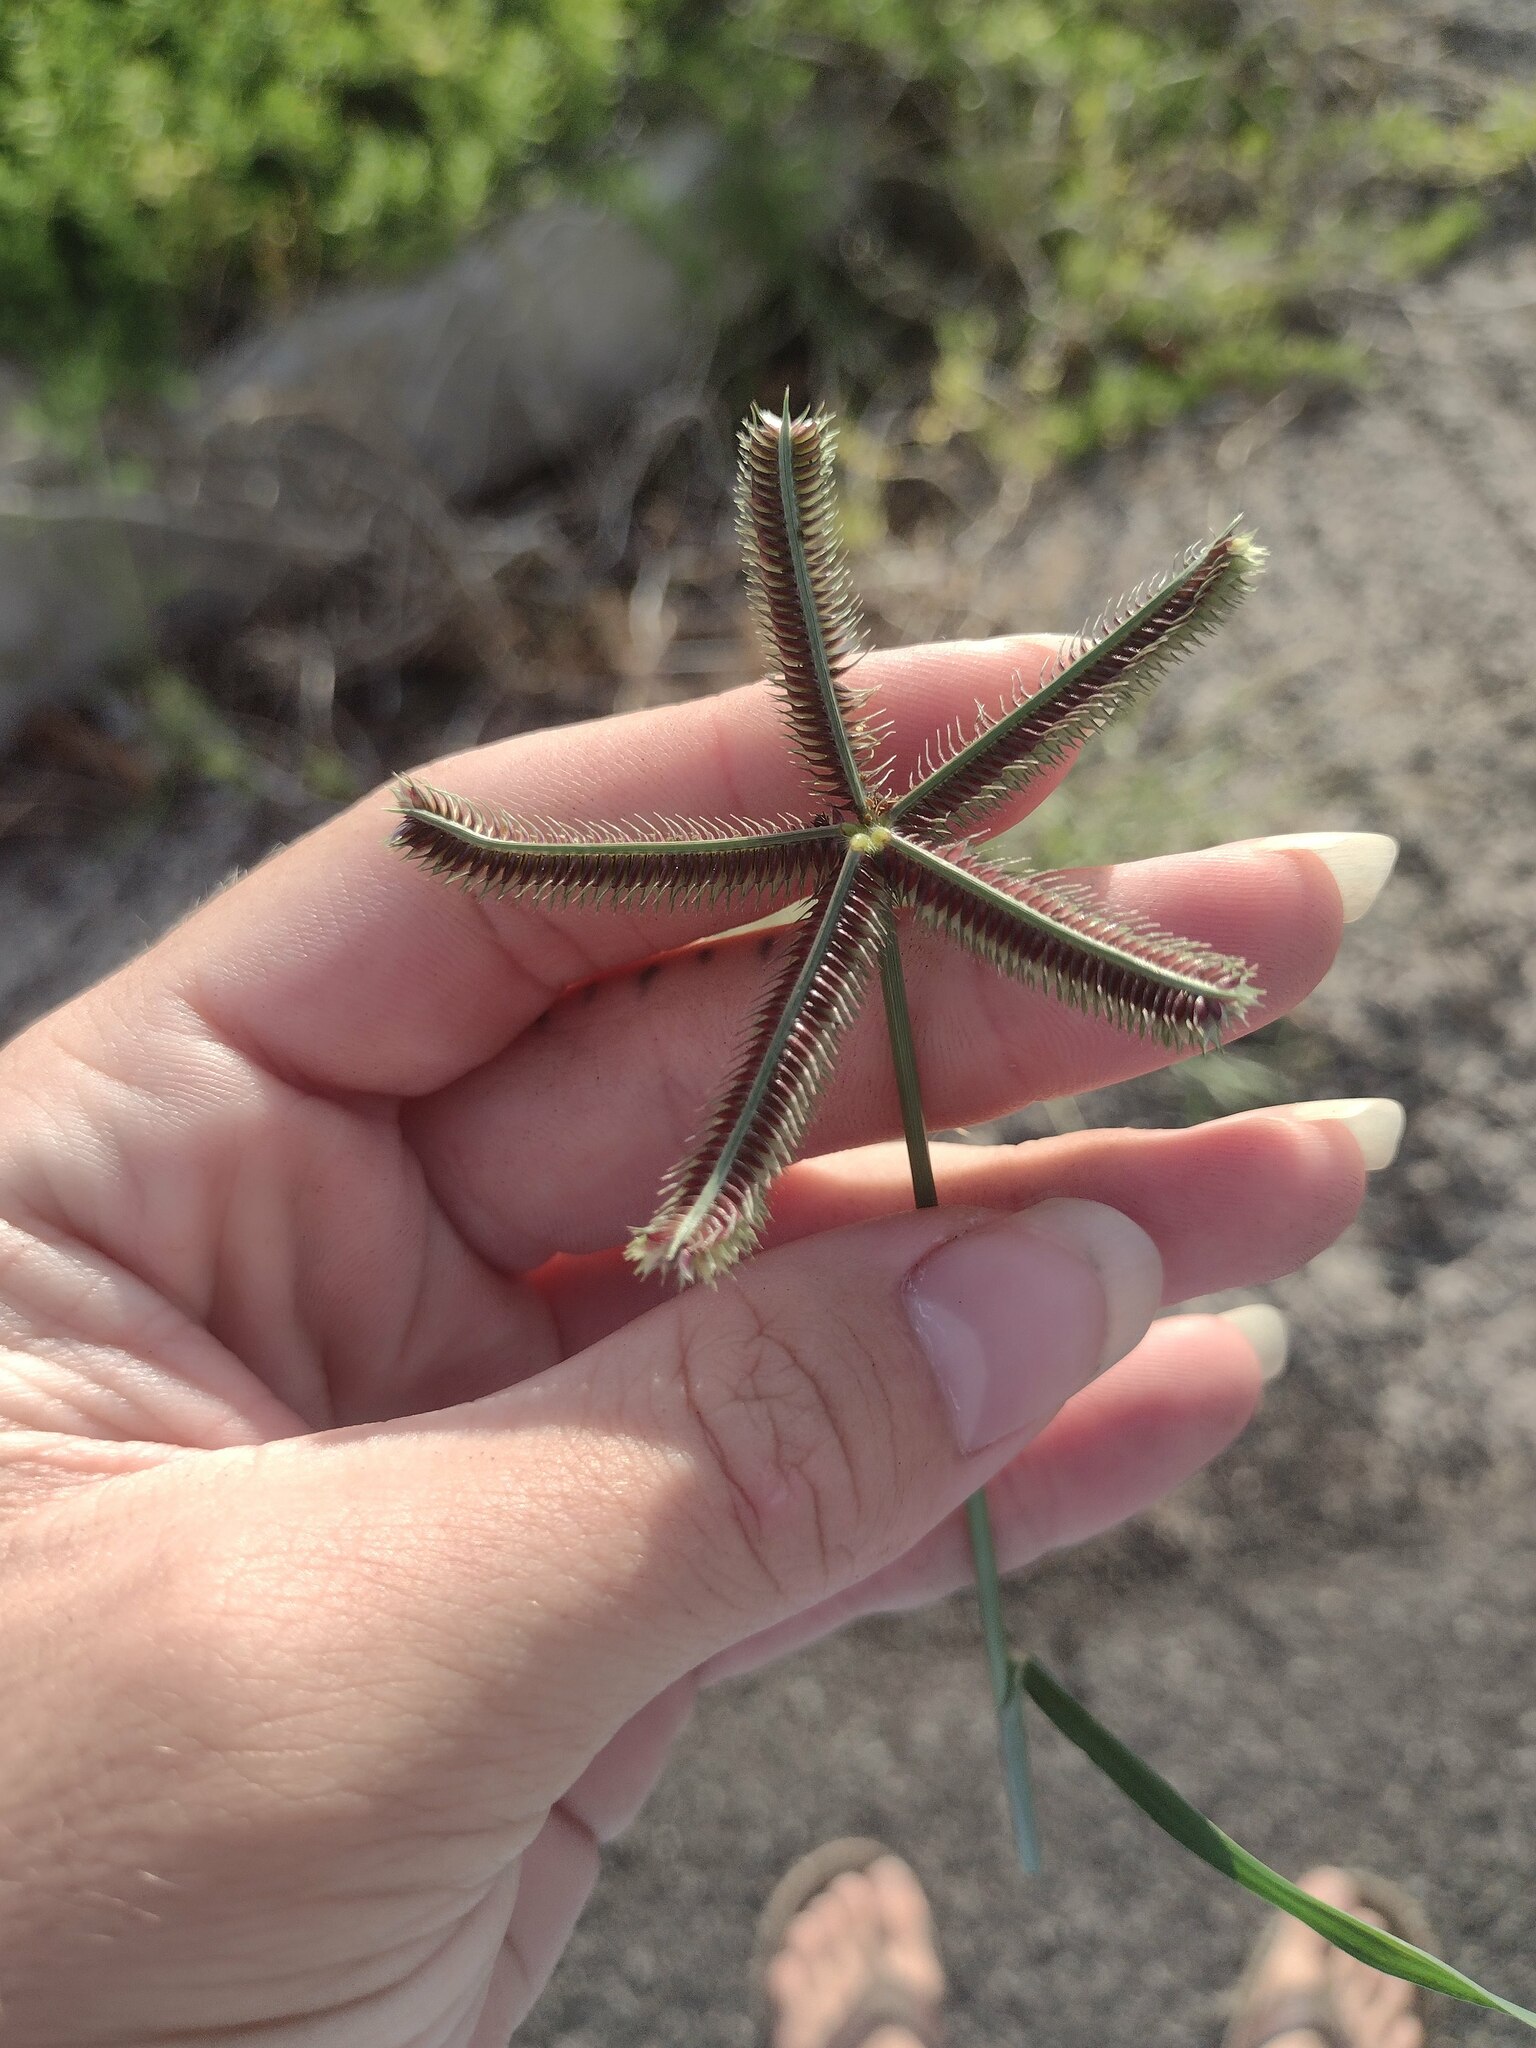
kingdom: Plantae
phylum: Tracheophyta
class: Liliopsida
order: Poales
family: Poaceae
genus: Dactyloctenium
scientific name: Dactyloctenium aegyptium
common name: Egyptian grass
